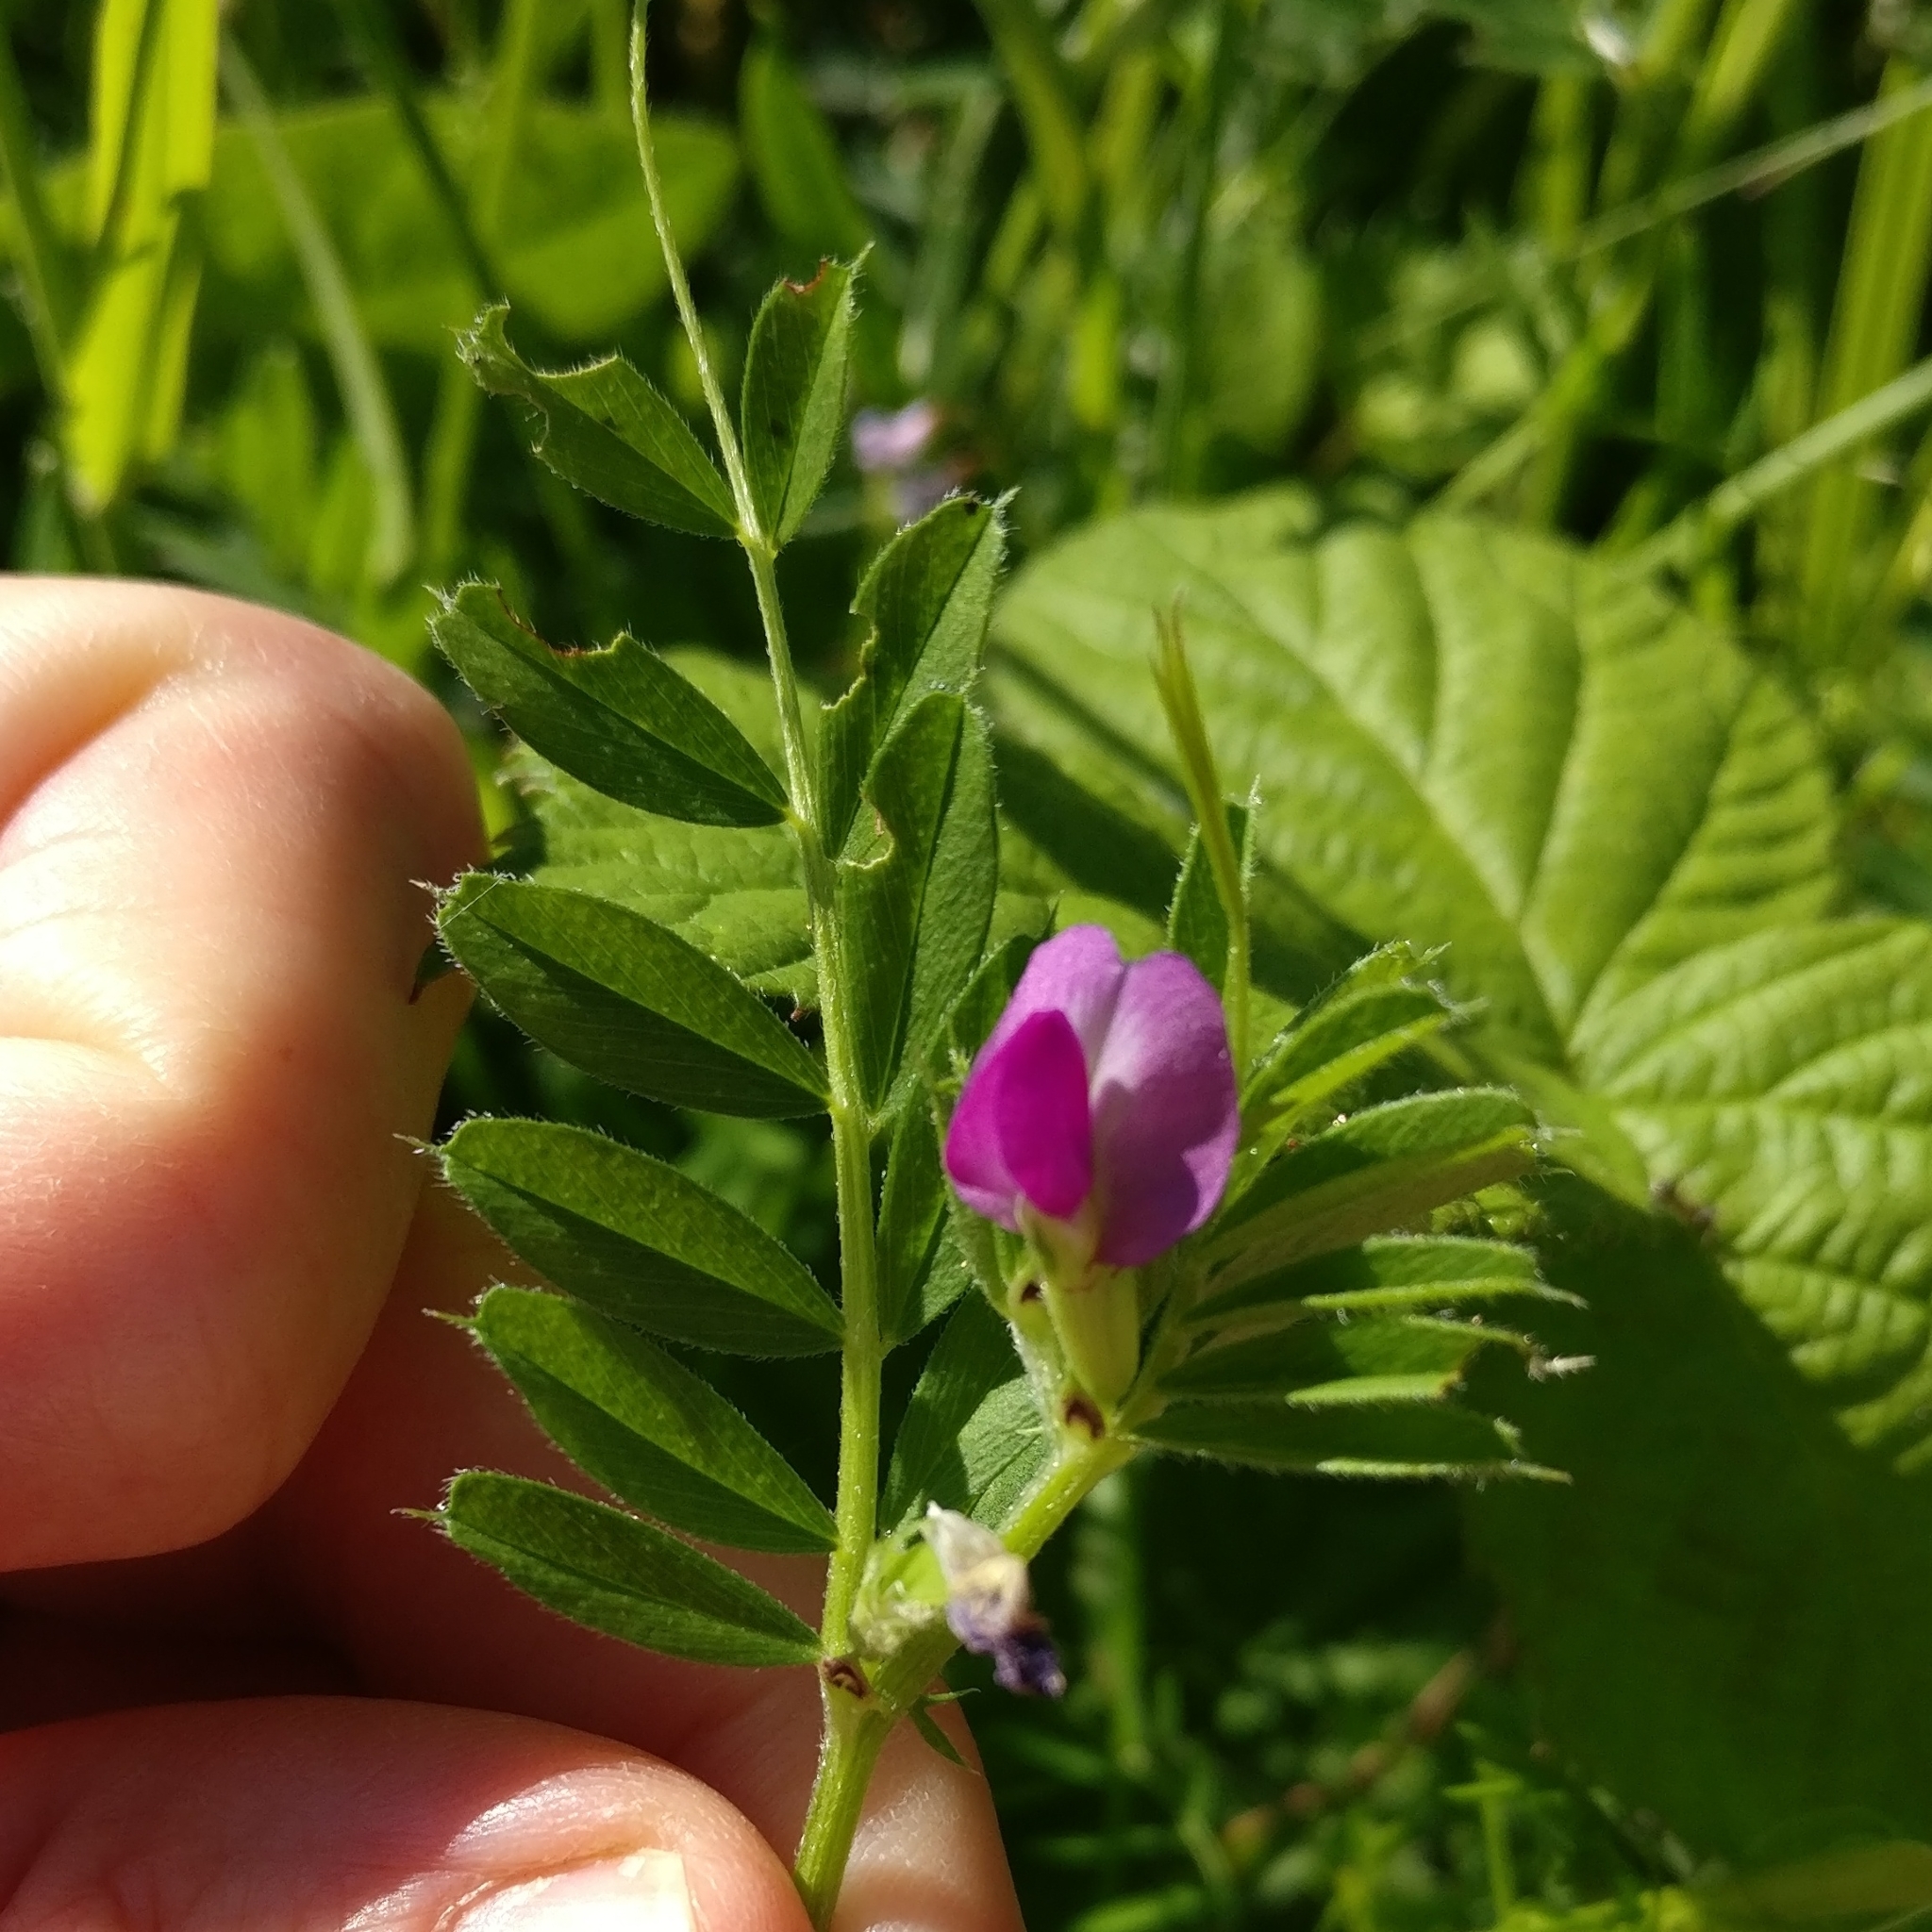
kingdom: Plantae
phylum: Tracheophyta
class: Magnoliopsida
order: Fabales
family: Fabaceae
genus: Vicia
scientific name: Vicia sativa
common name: Garden vetch
